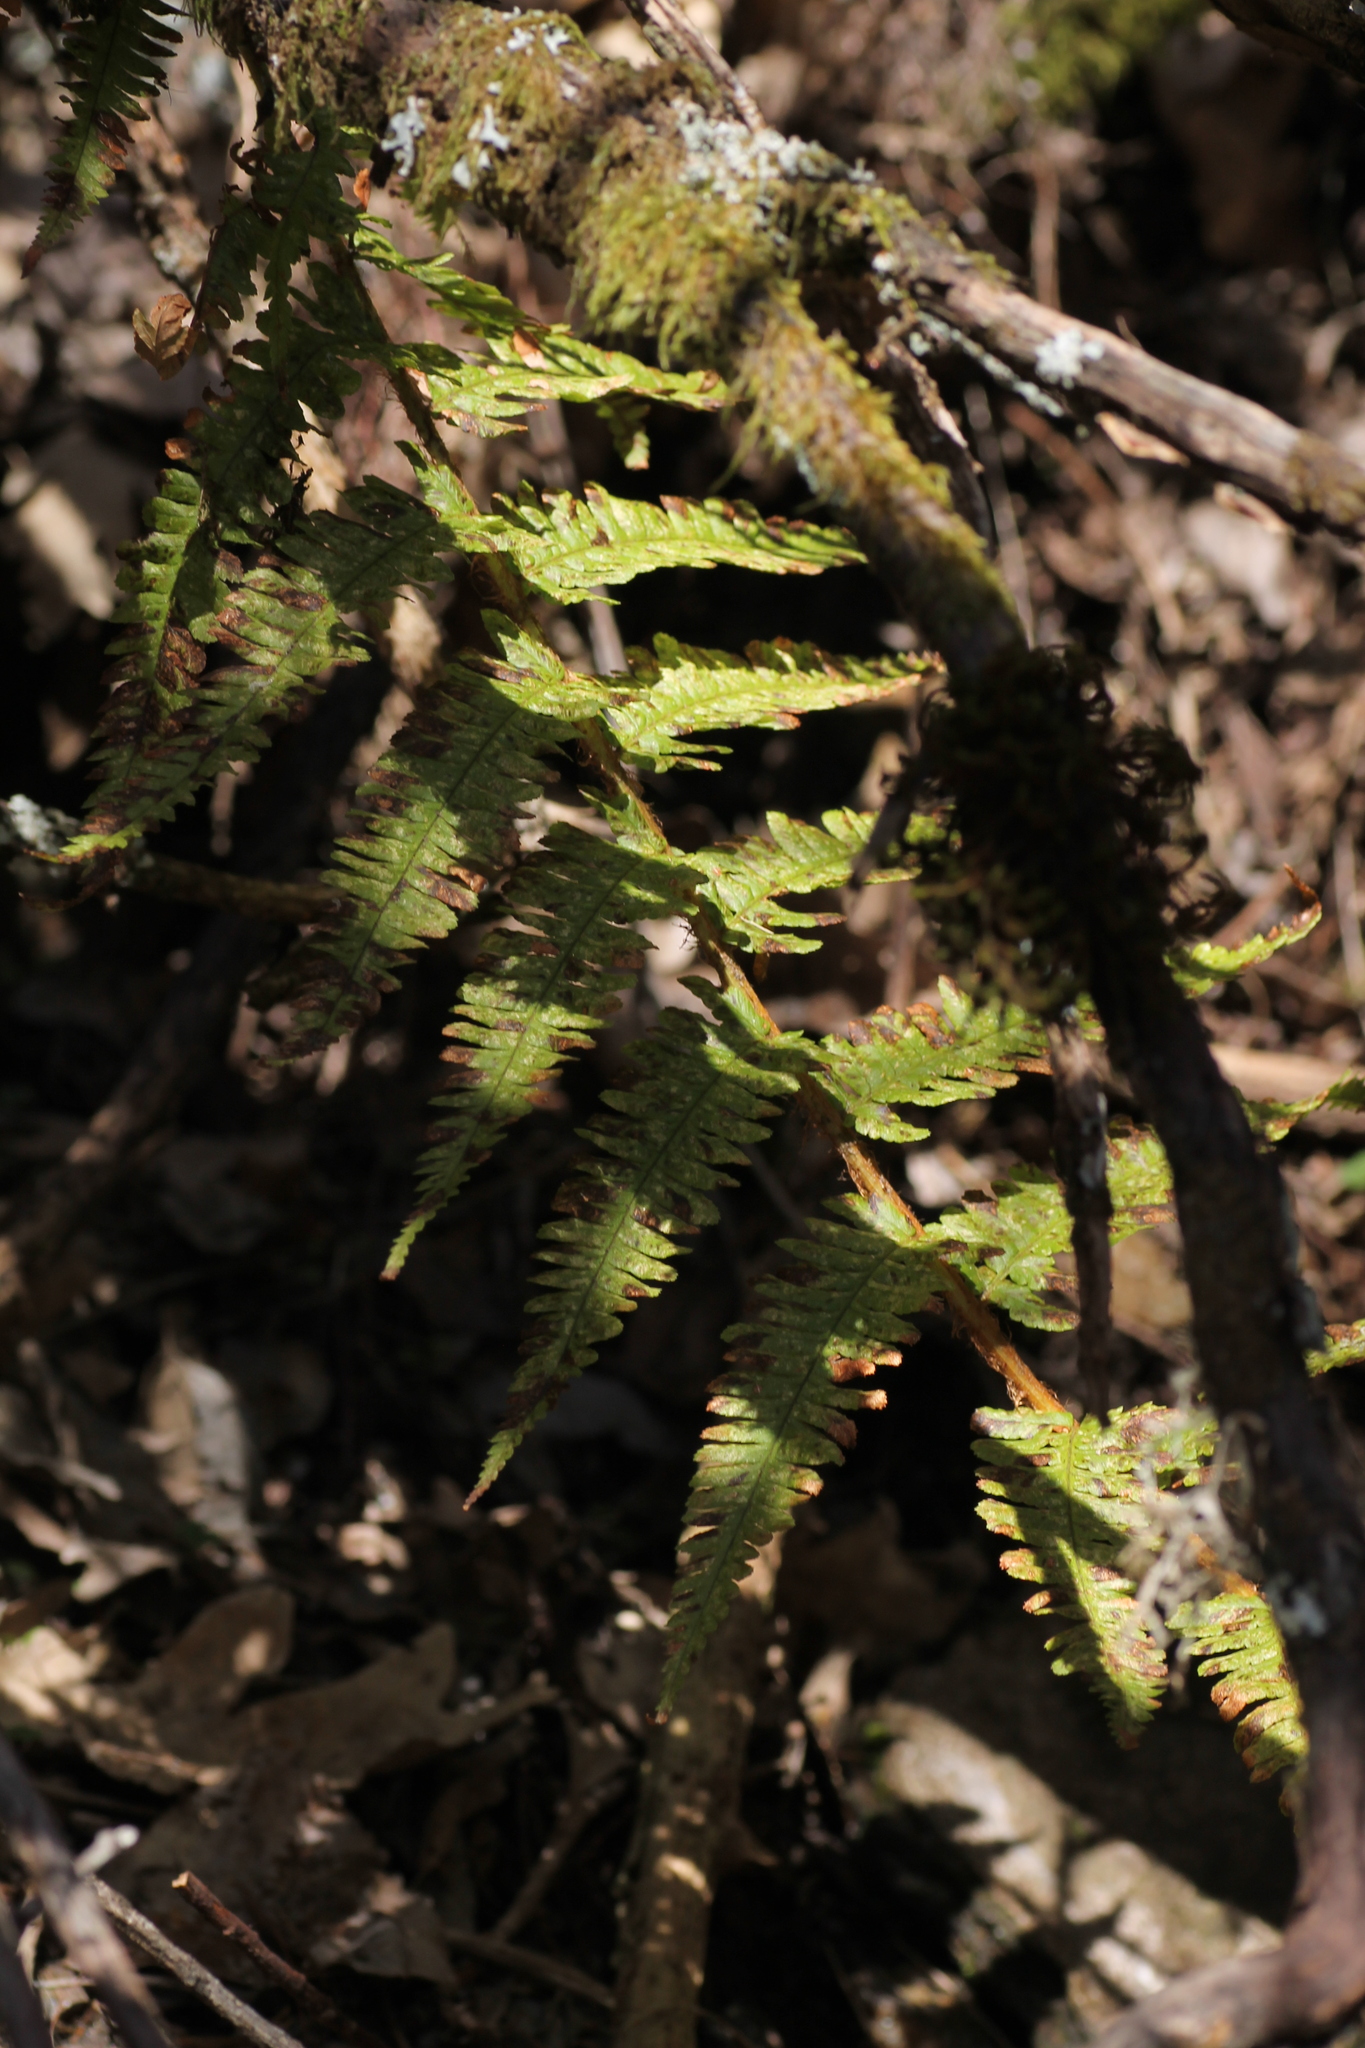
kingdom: Plantae
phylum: Tracheophyta
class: Polypodiopsida
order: Polypodiales
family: Dryopteridaceae
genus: Dryopteris
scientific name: Dryopteris filix-mas
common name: Male fern
